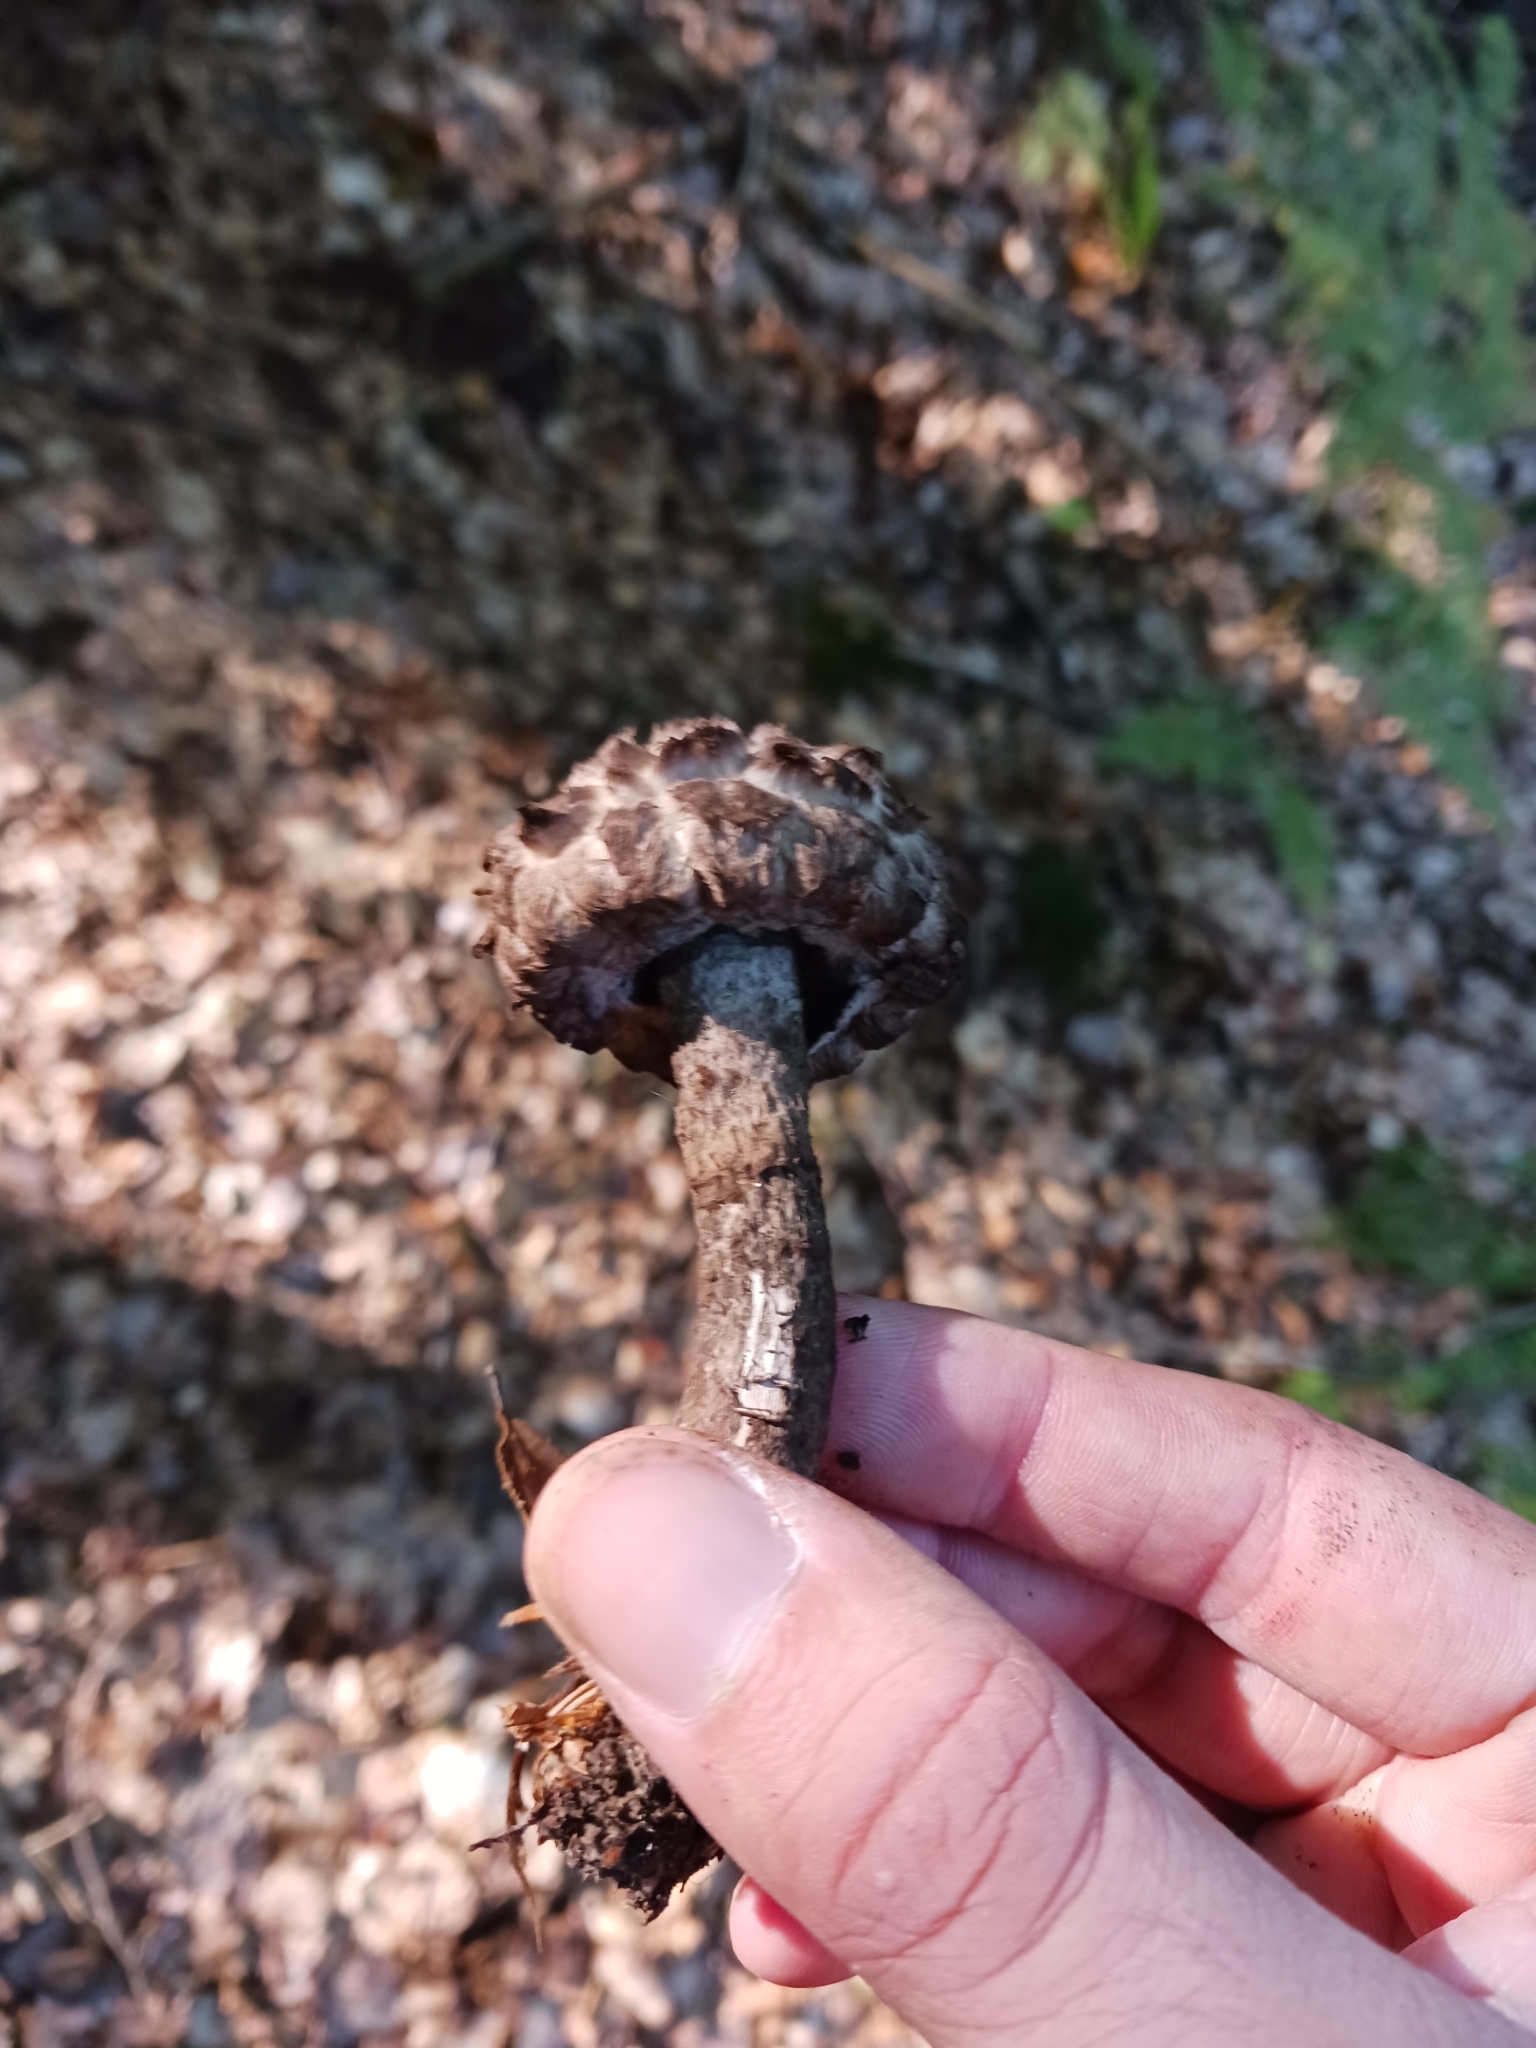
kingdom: Fungi
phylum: Basidiomycota
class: Agaricomycetes
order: Boletales
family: Boletaceae
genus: Strobilomyces
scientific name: Strobilomyces strobilaceus
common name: Old man of the woods
